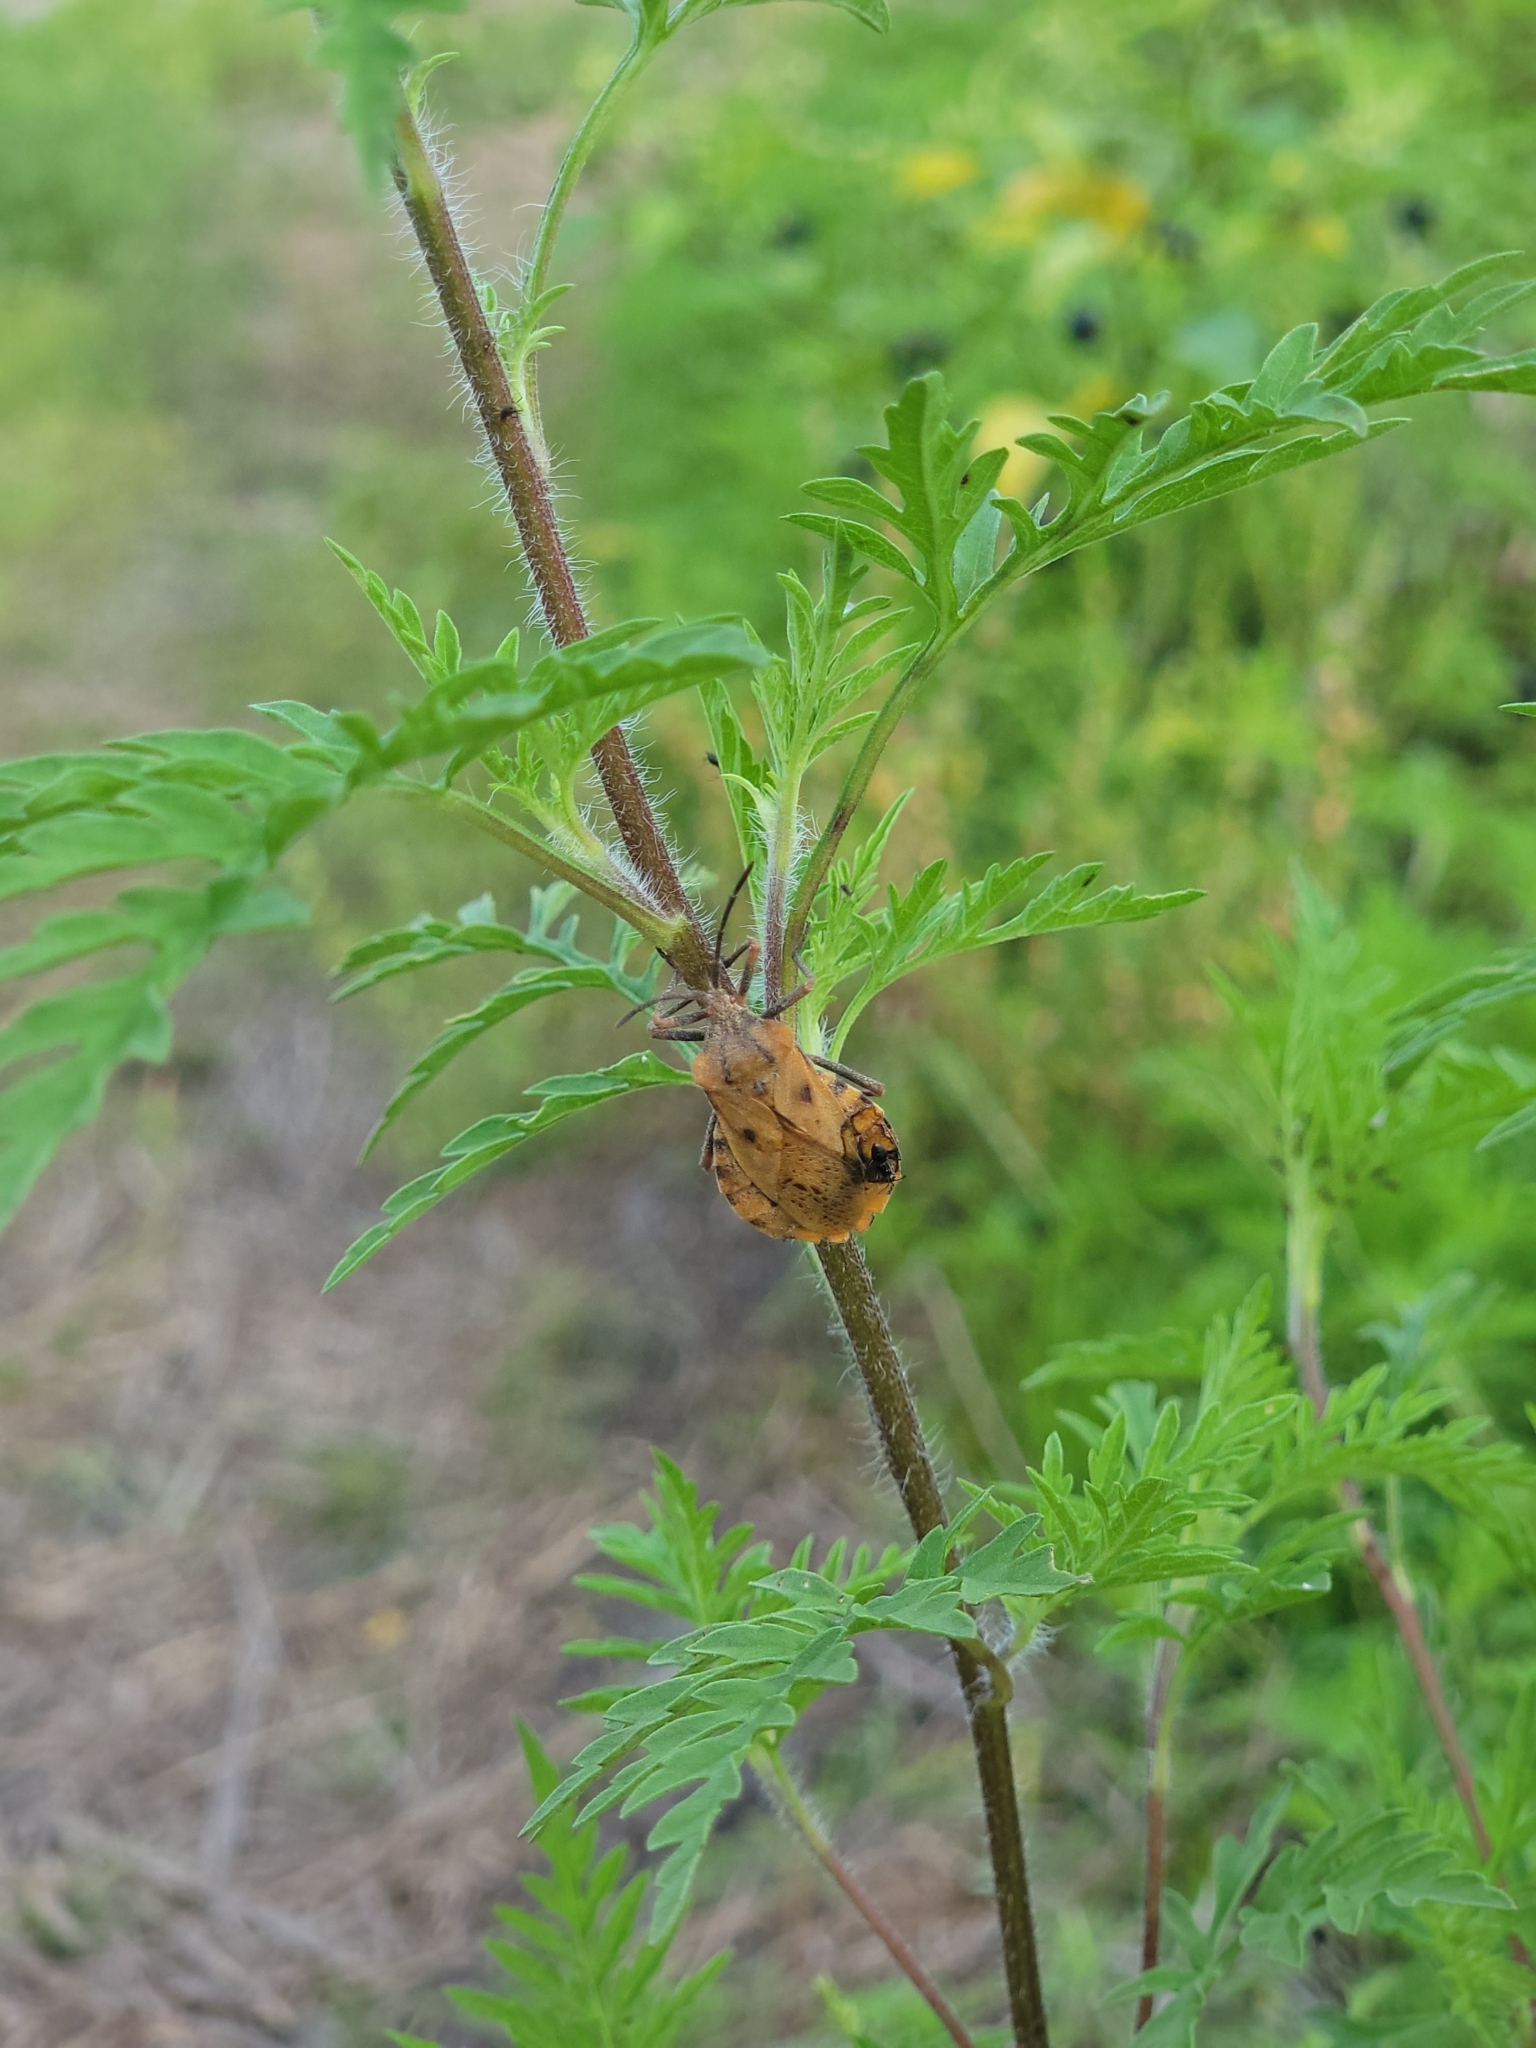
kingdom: Animalia
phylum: Arthropoda
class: Insecta
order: Hemiptera
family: Coreidae
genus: Spartocera
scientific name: Spartocera fusca
